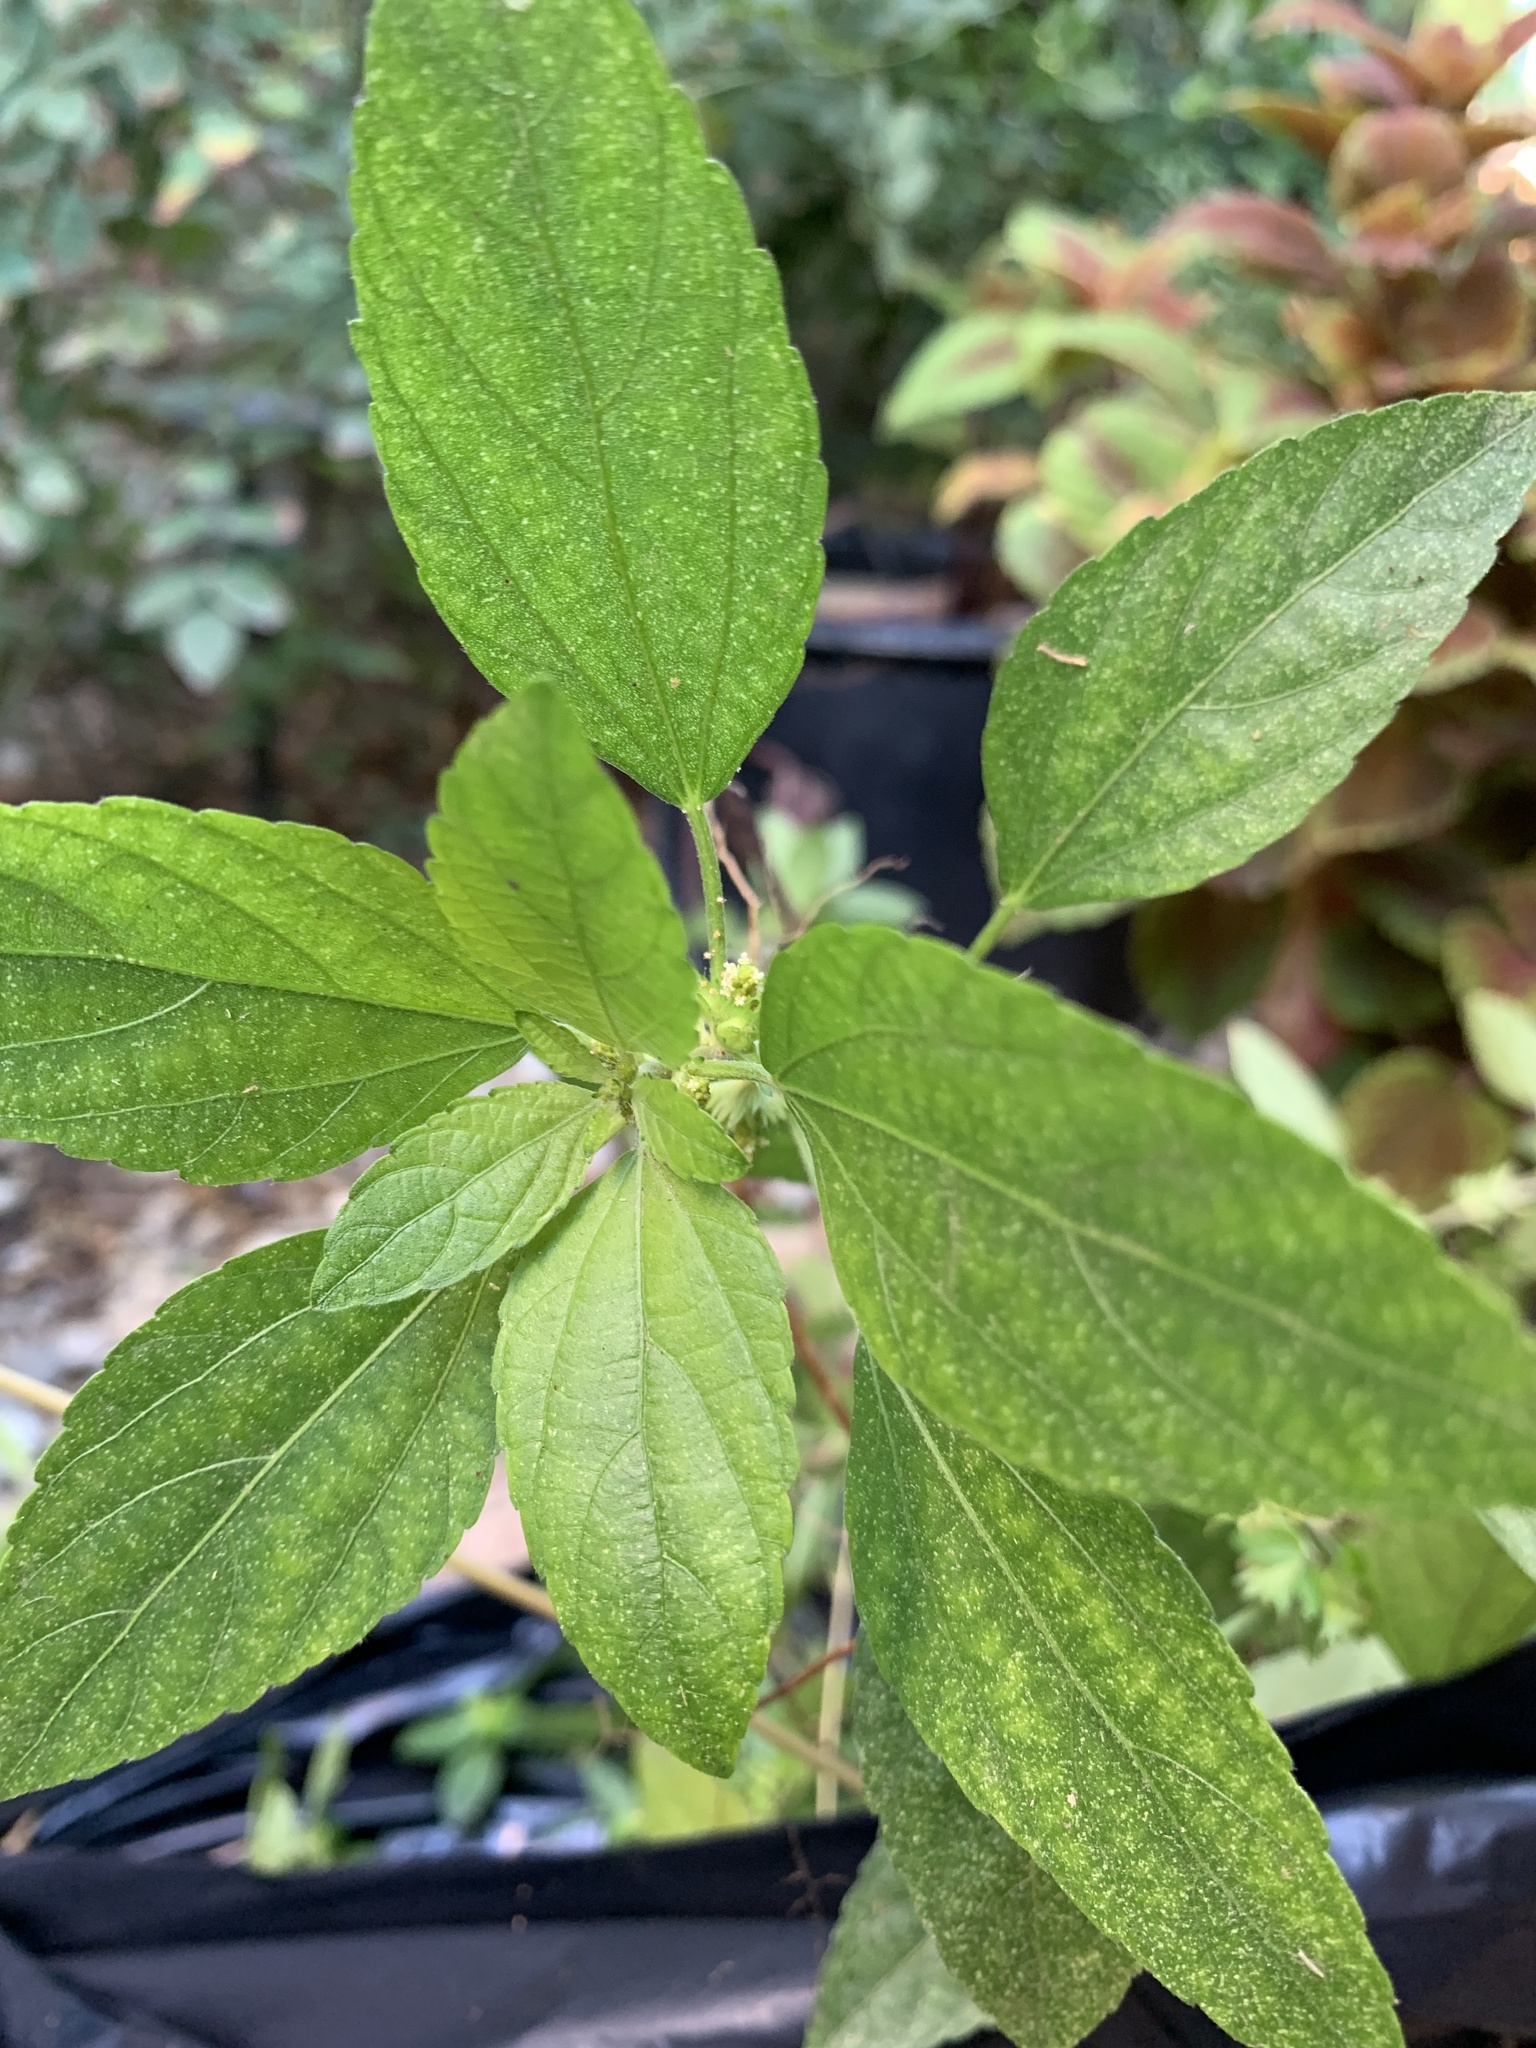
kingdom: Plantae
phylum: Tracheophyta
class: Magnoliopsida
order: Malpighiales
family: Euphorbiaceae
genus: Acalypha
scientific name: Acalypha virginica
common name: Virginia copperleaf
